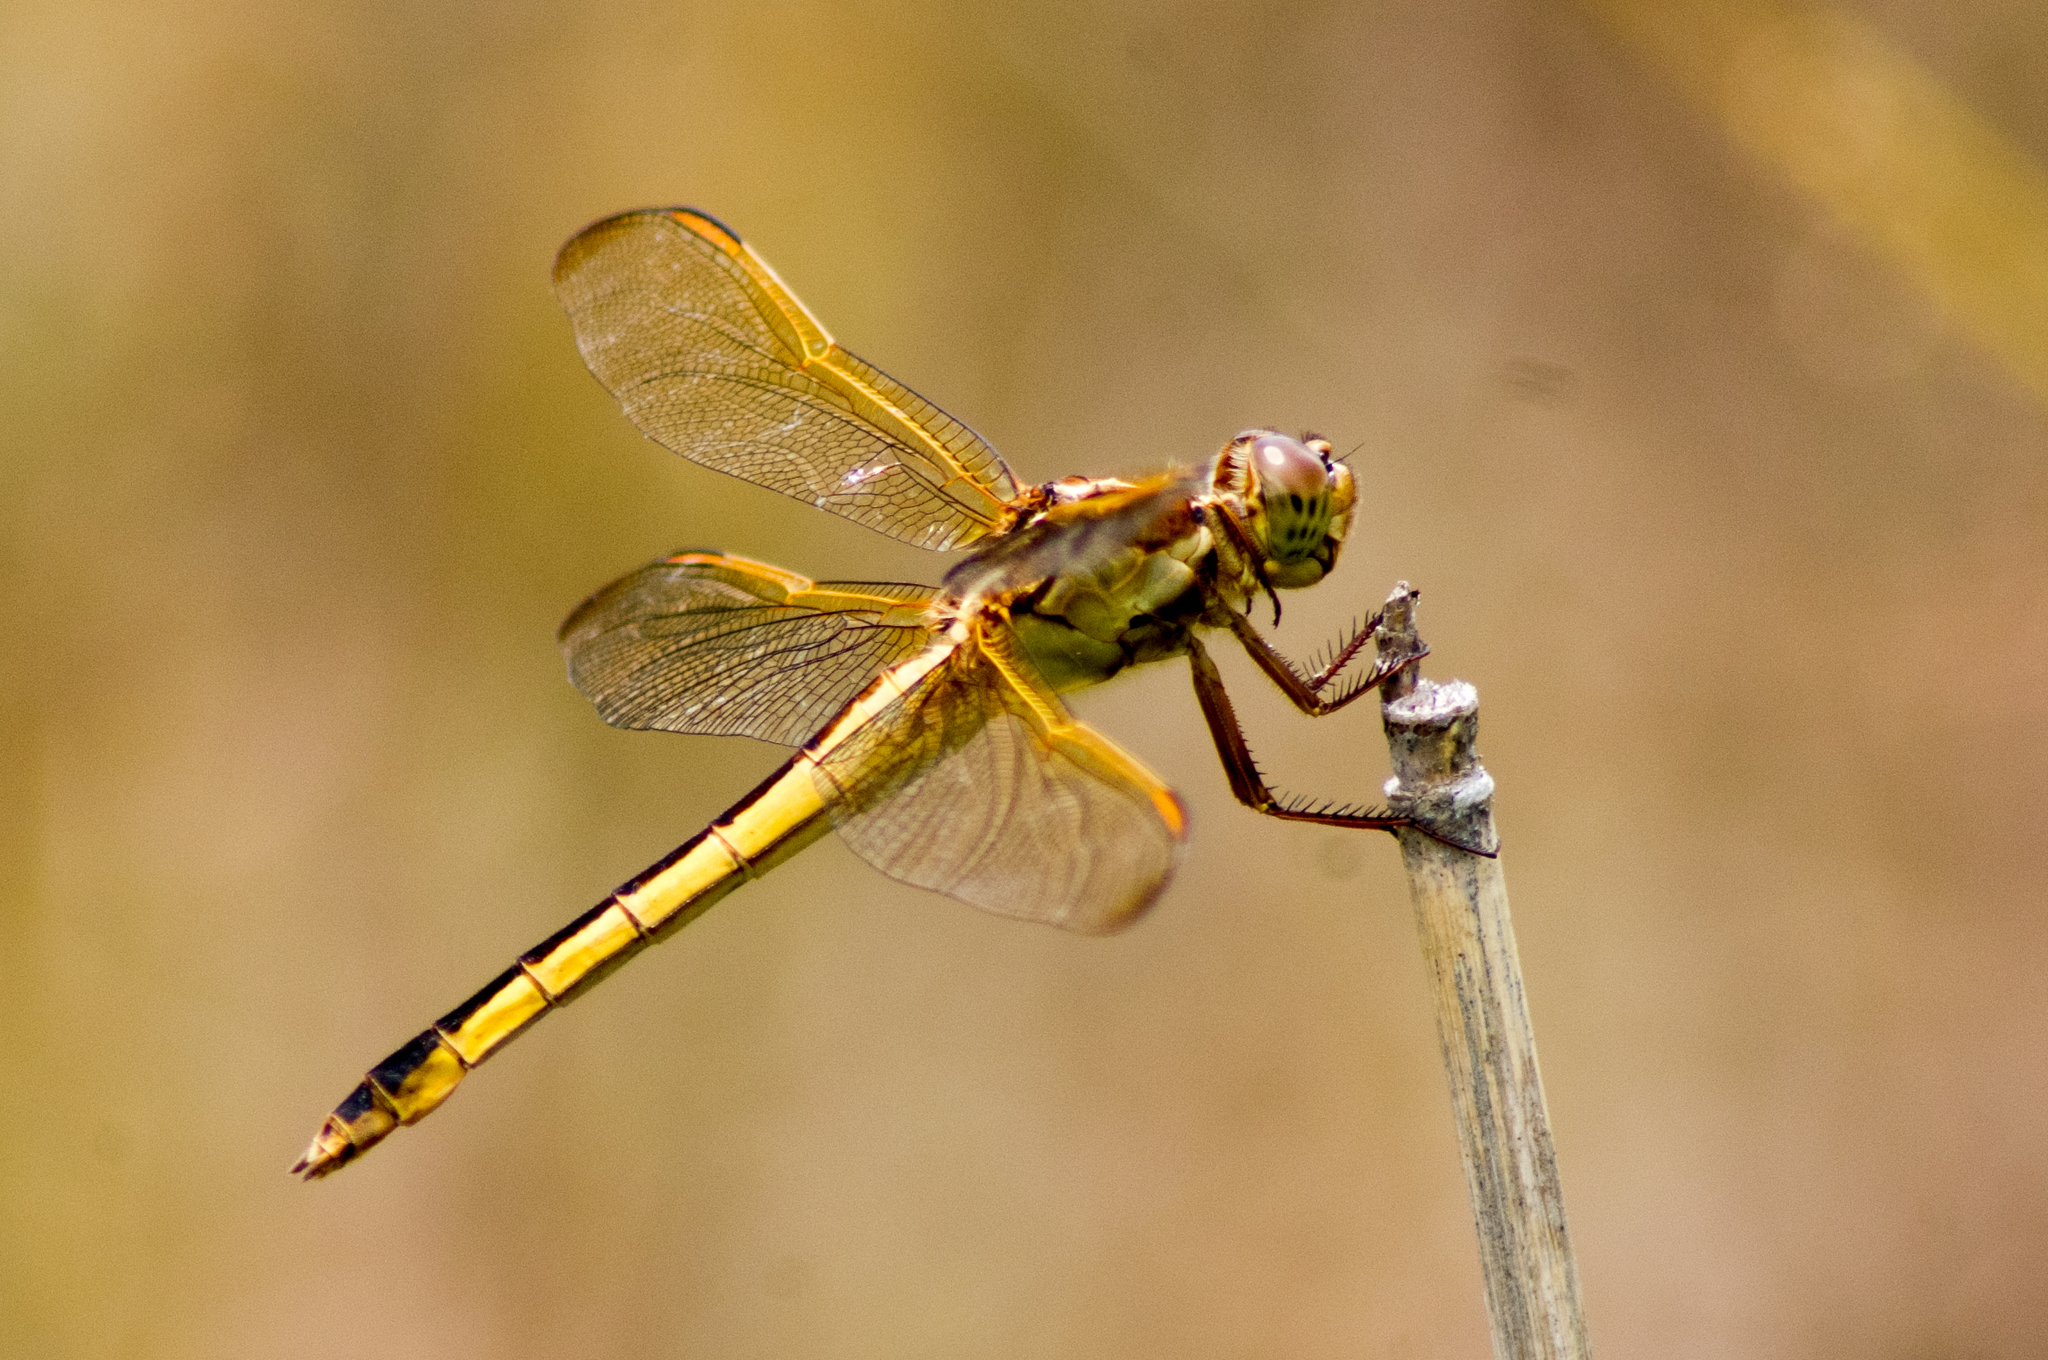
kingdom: Animalia
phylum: Arthropoda
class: Insecta
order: Odonata
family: Libellulidae
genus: Libellula
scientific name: Libellula needhami
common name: Needham's skimmer
